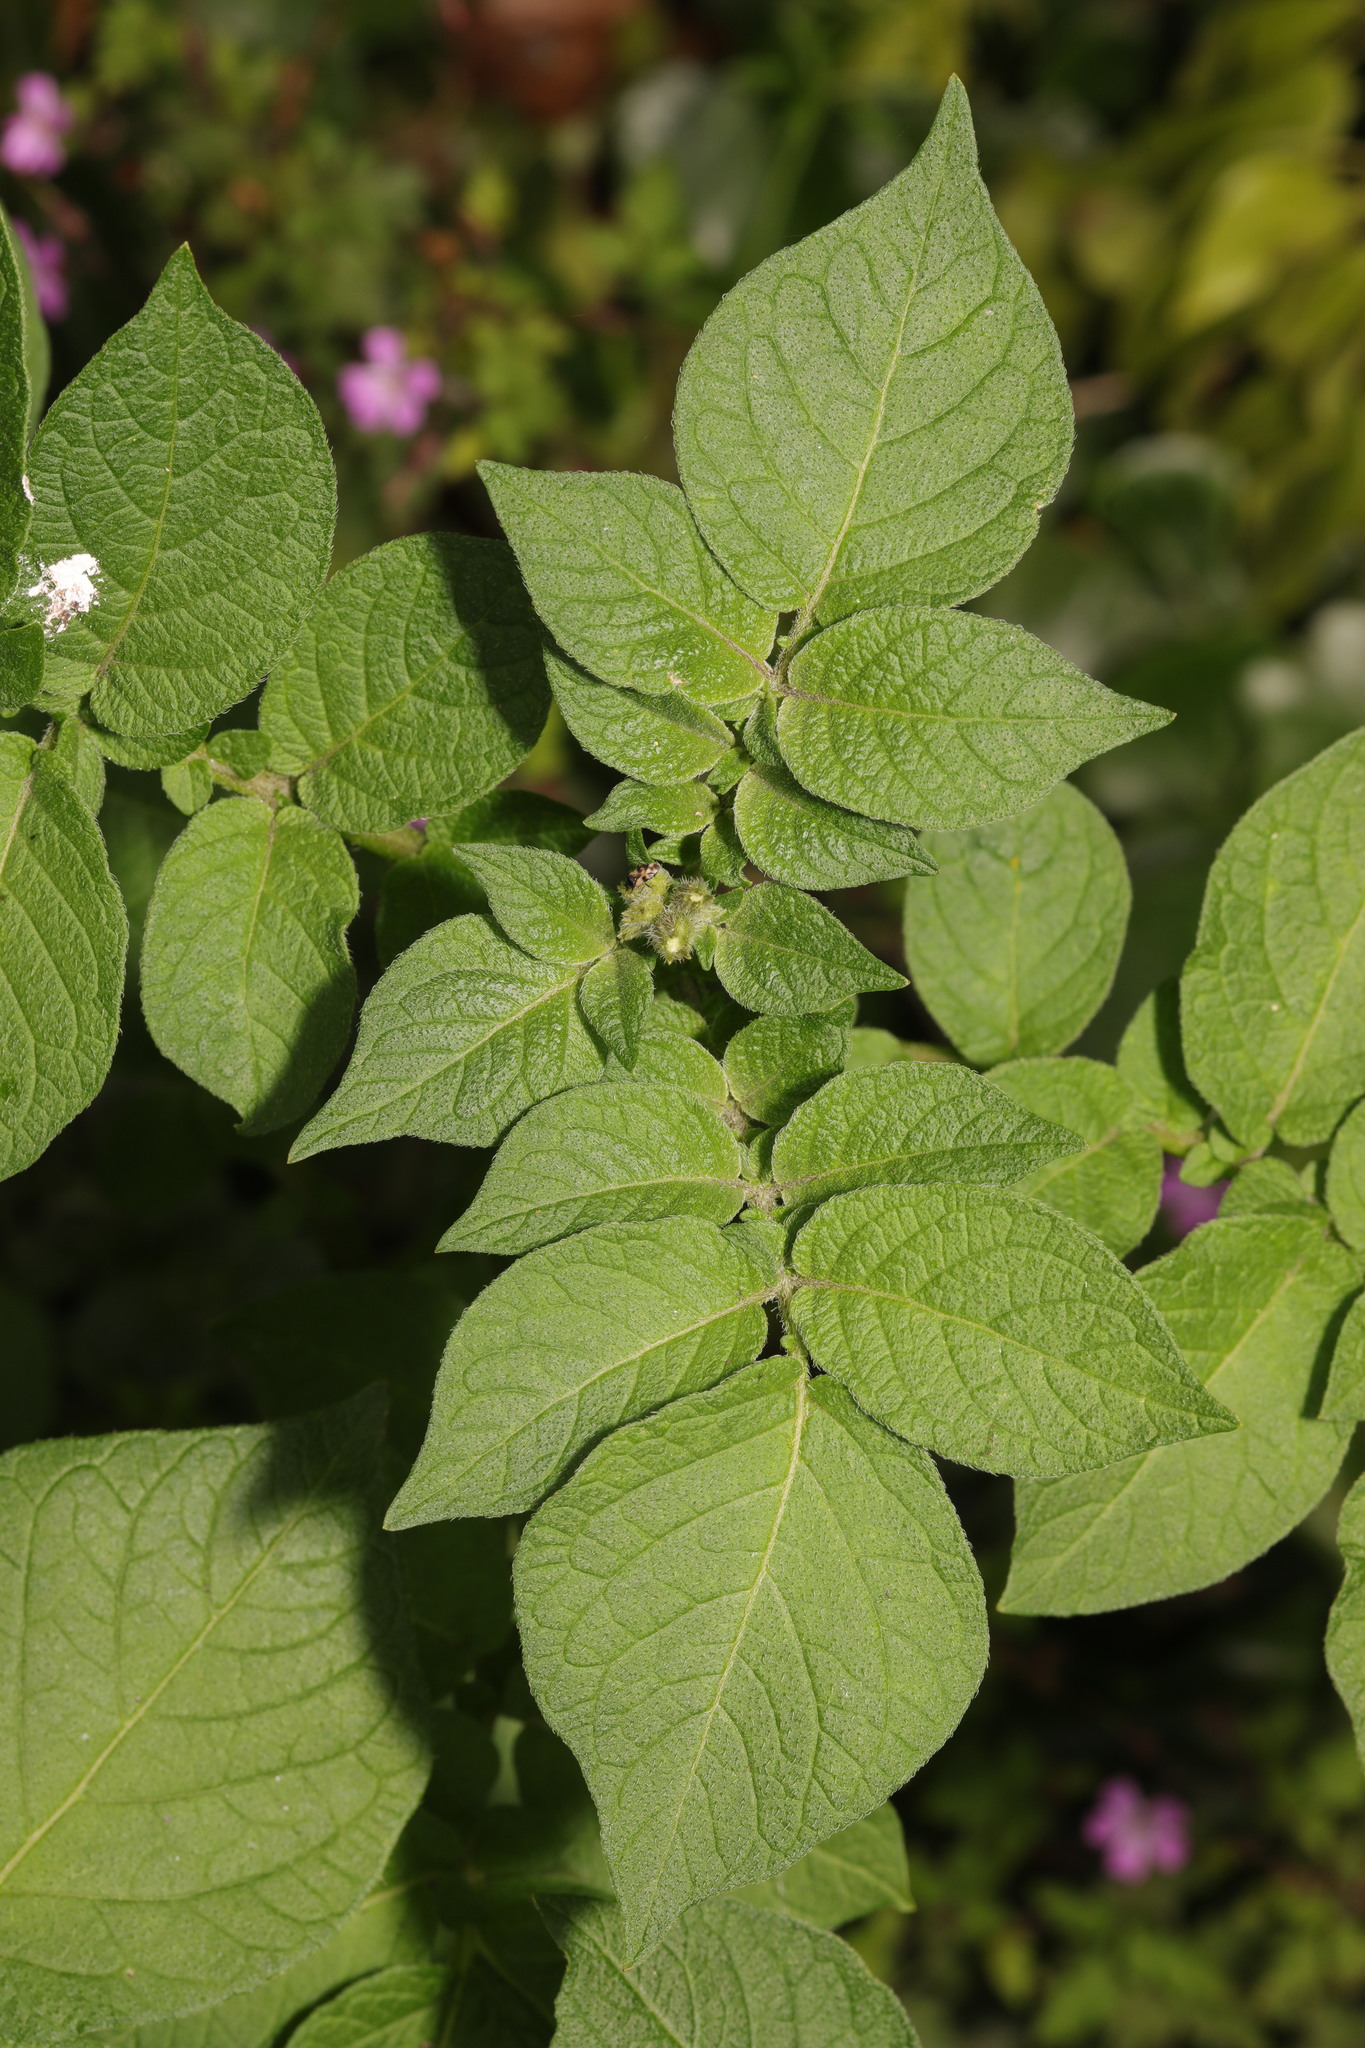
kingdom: Plantae
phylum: Tracheophyta
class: Magnoliopsida
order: Solanales
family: Solanaceae
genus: Solanum
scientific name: Solanum tuberosum
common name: Potato
